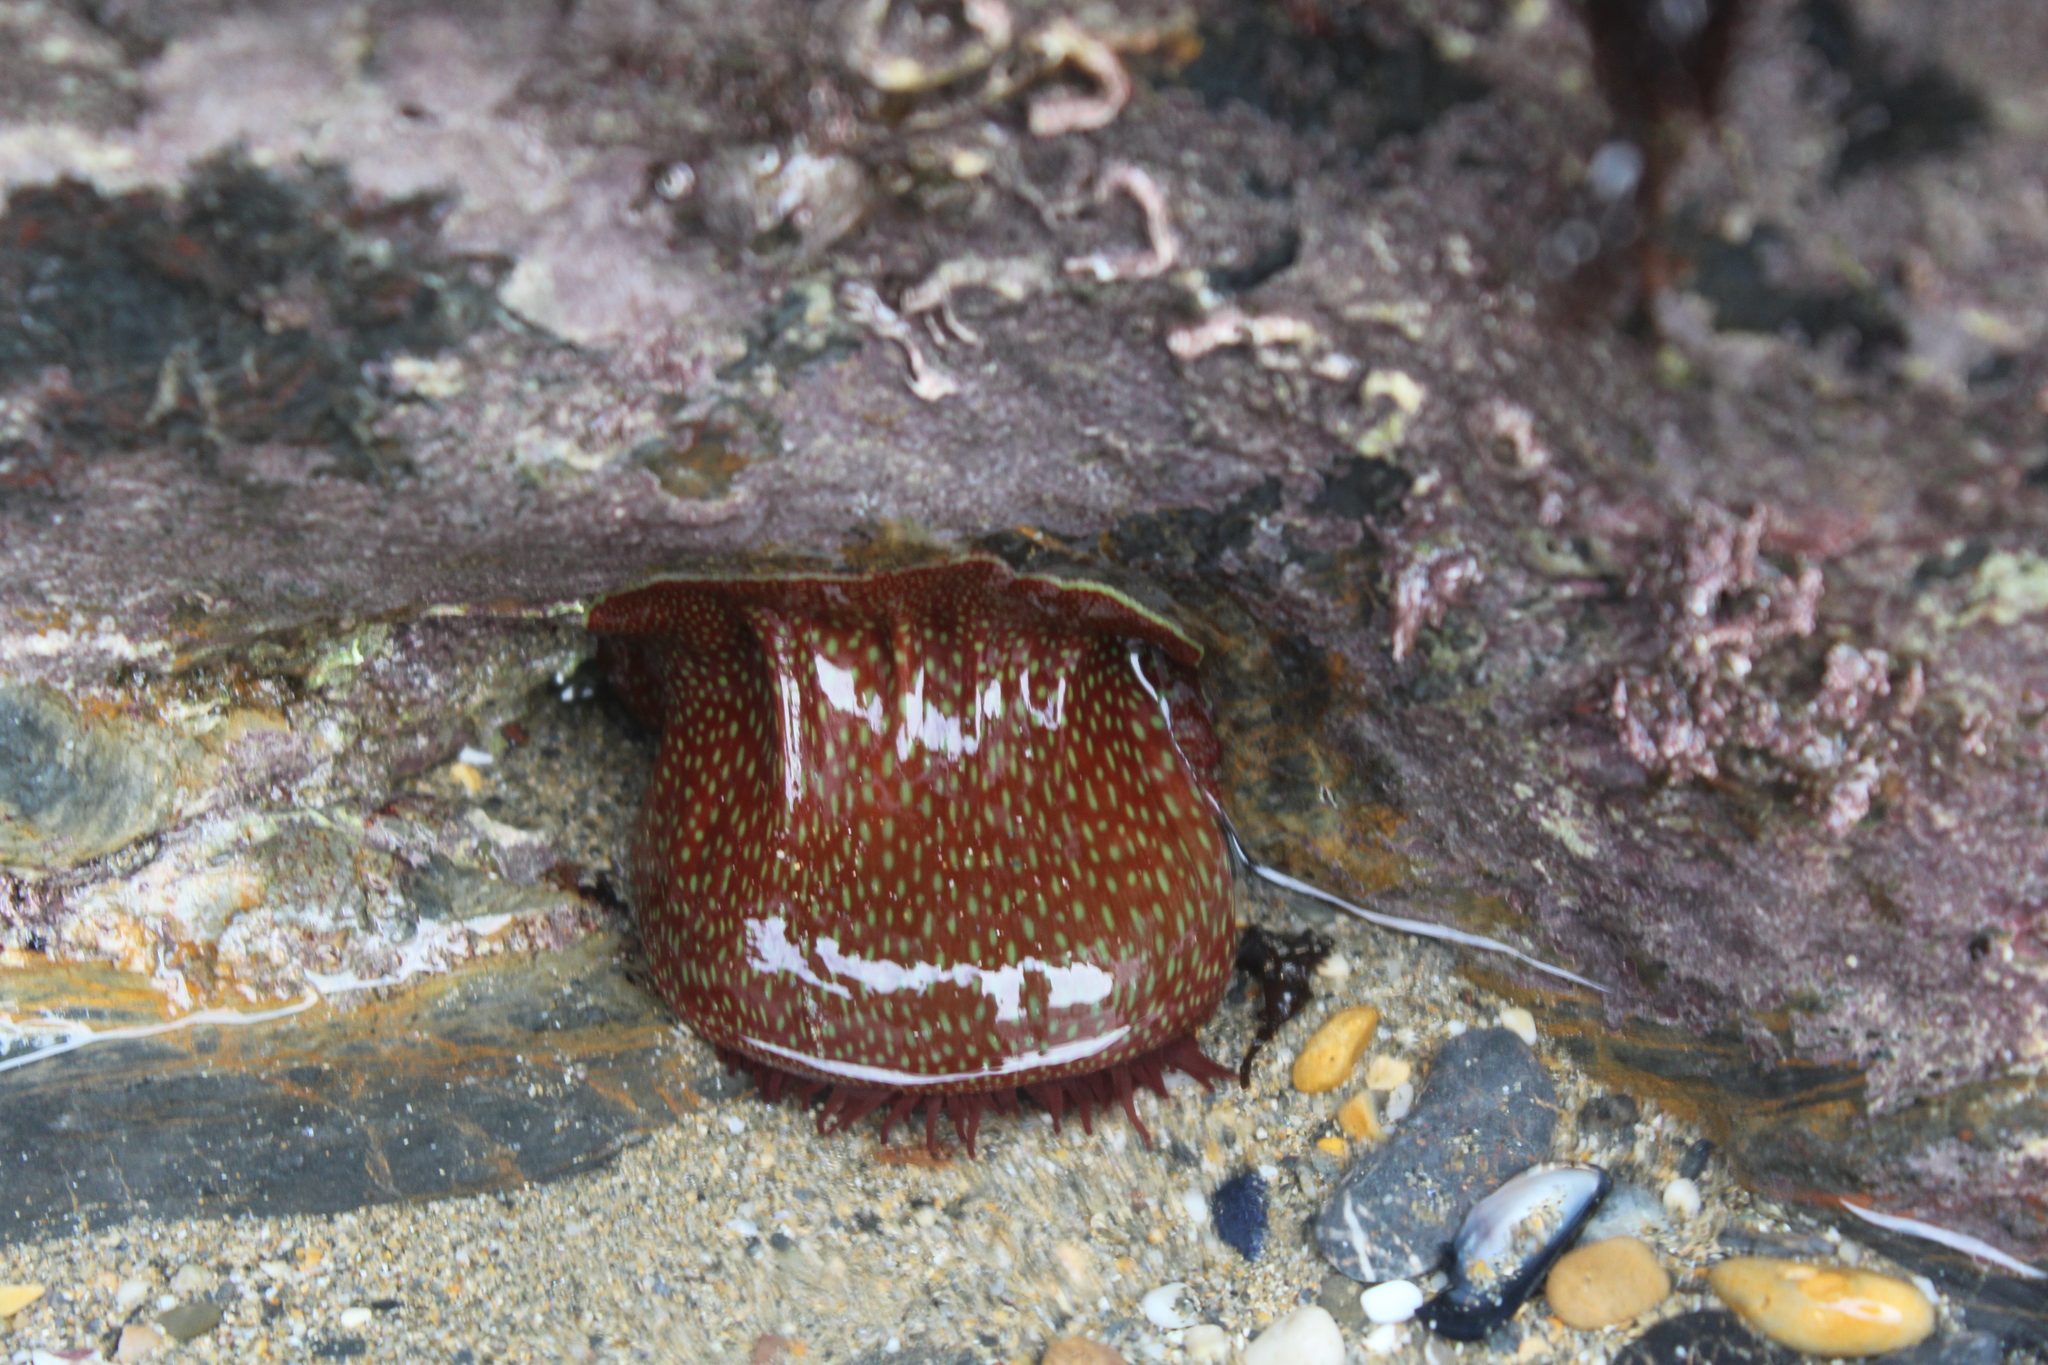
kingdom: Animalia
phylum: Cnidaria
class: Anthozoa
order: Actiniaria
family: Actiniidae
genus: Actinia
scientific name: Actinia fragacea
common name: Strawberry anemone
